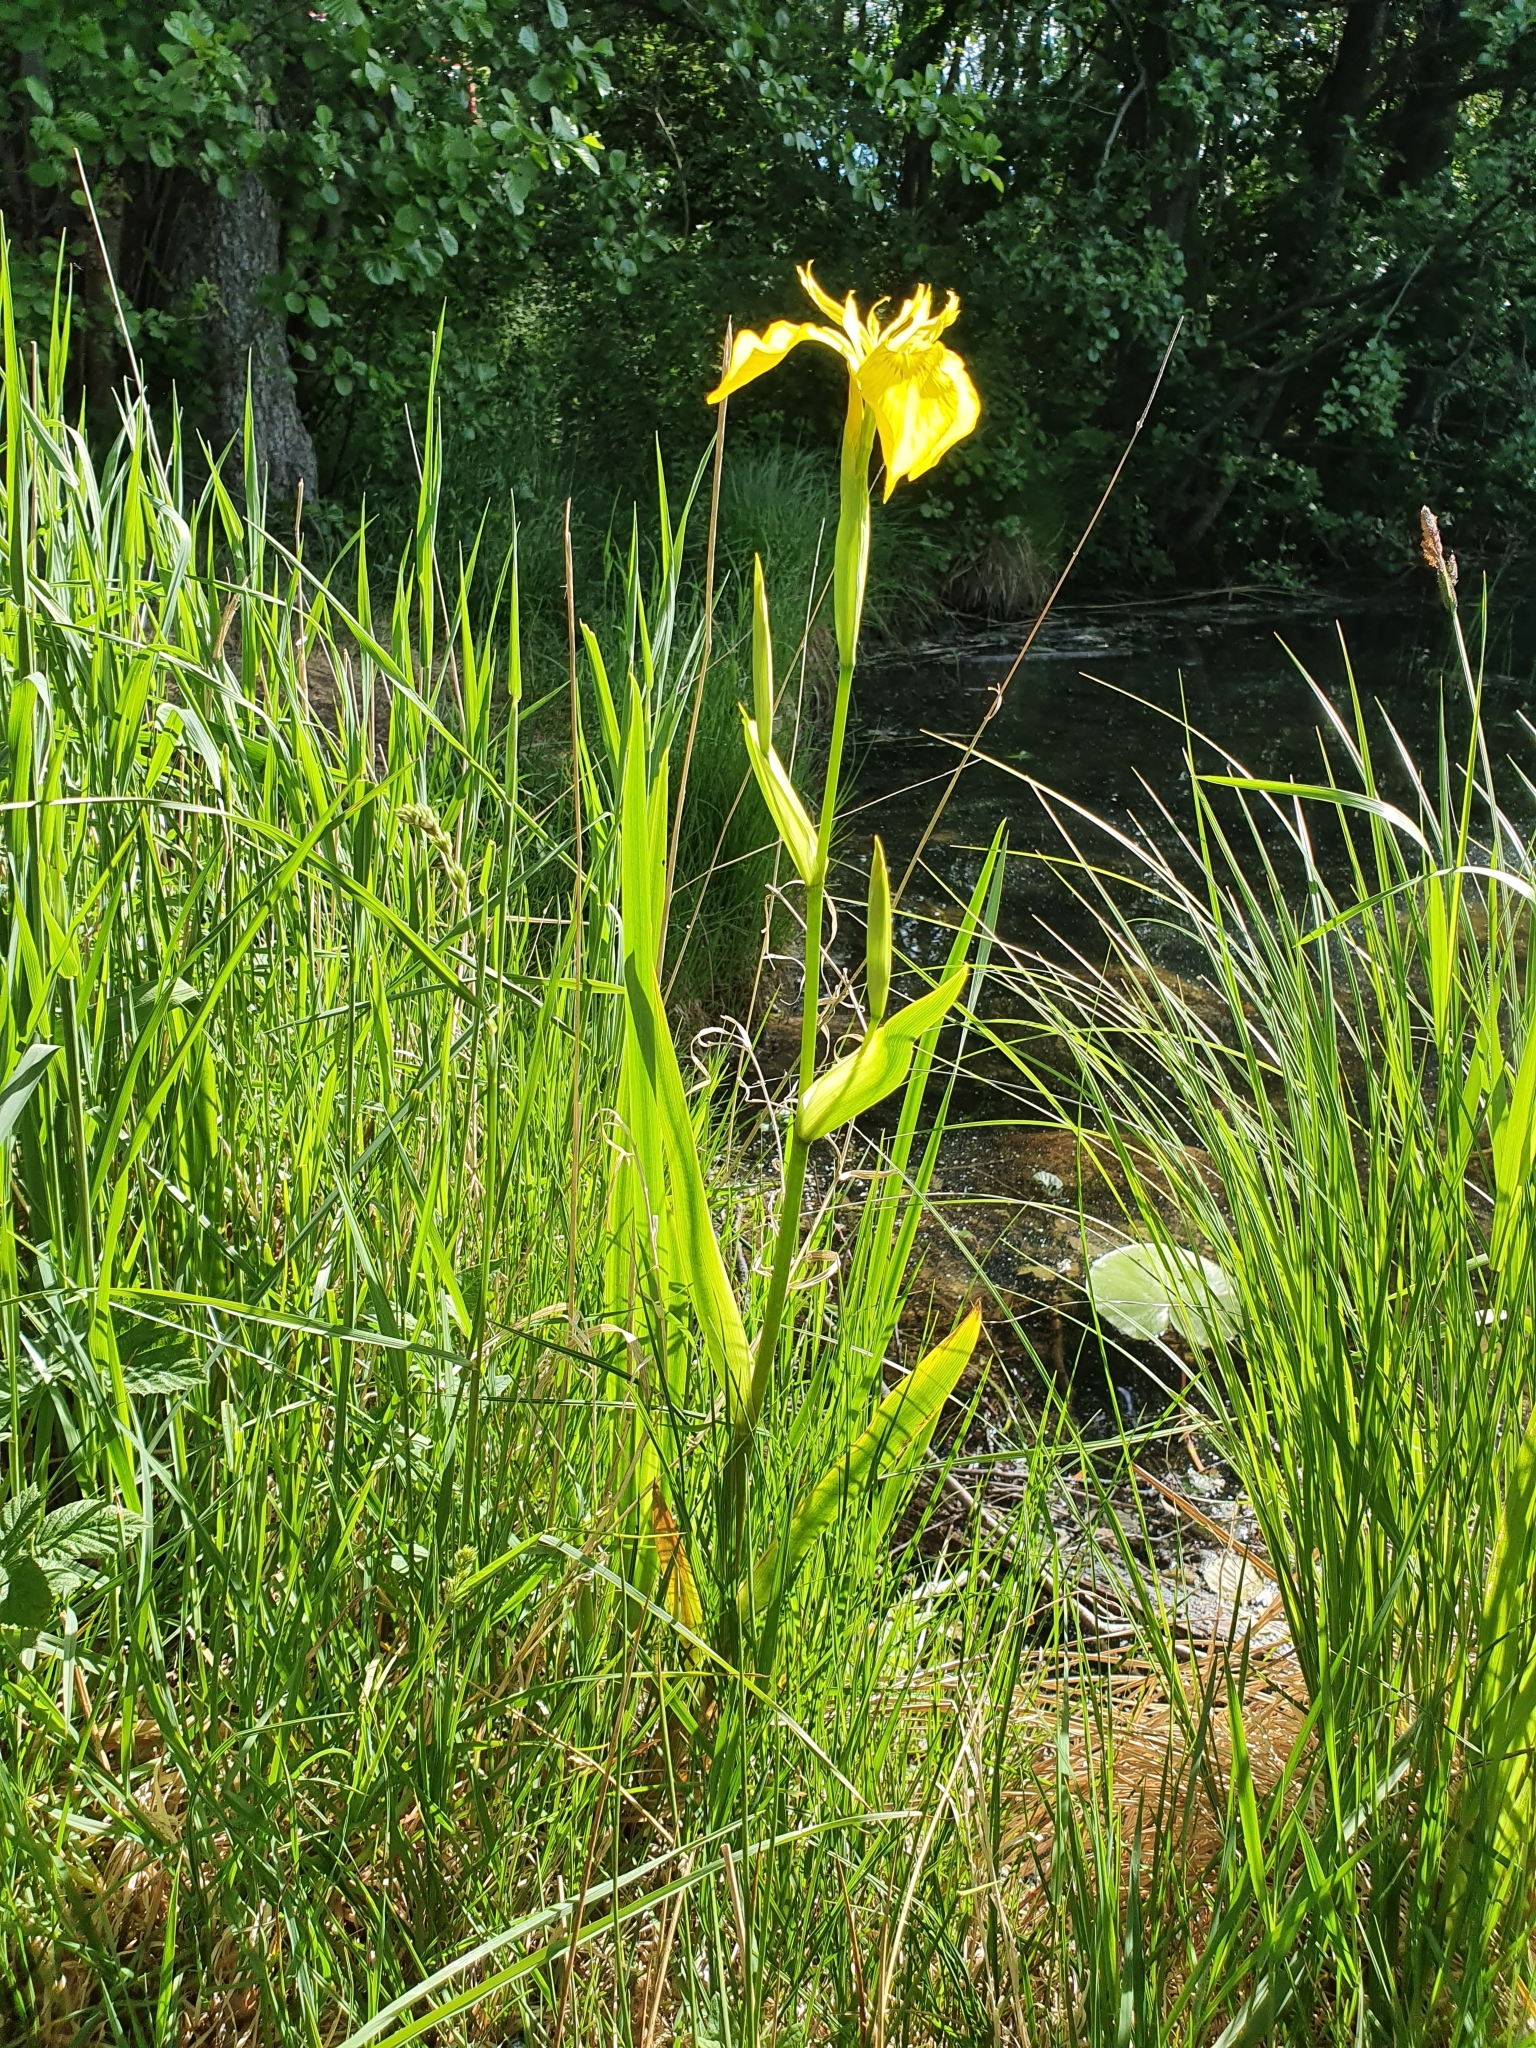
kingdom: Plantae
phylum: Tracheophyta
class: Liliopsida
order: Asparagales
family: Iridaceae
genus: Iris
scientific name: Iris pseudacorus
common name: Yellow flag
